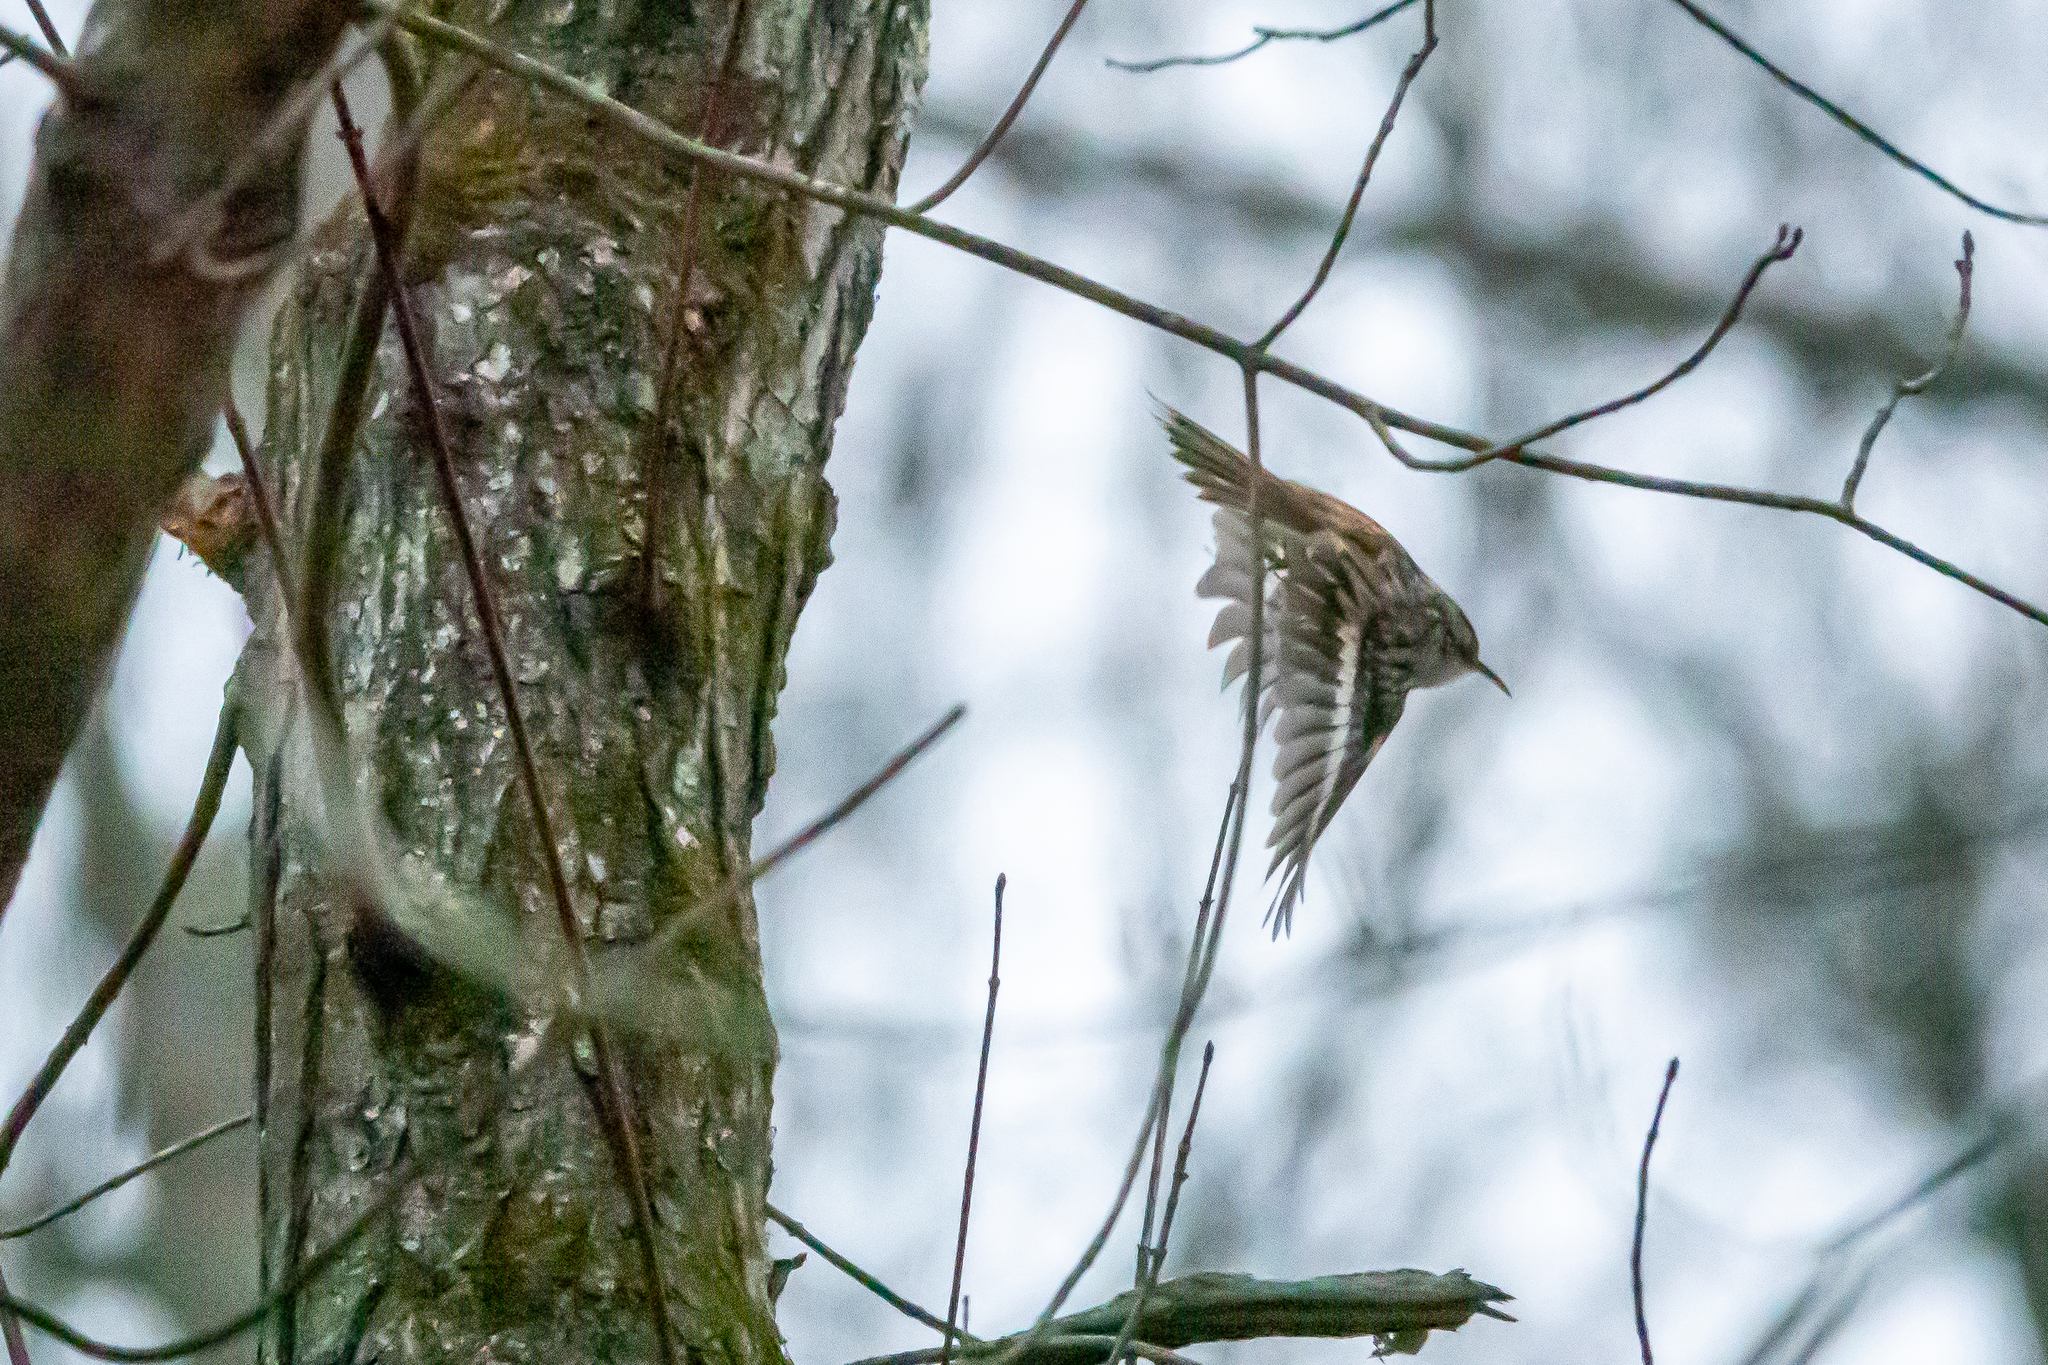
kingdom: Animalia
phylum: Chordata
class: Aves
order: Passeriformes
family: Certhiidae
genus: Certhia
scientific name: Certhia americana
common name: Brown creeper
